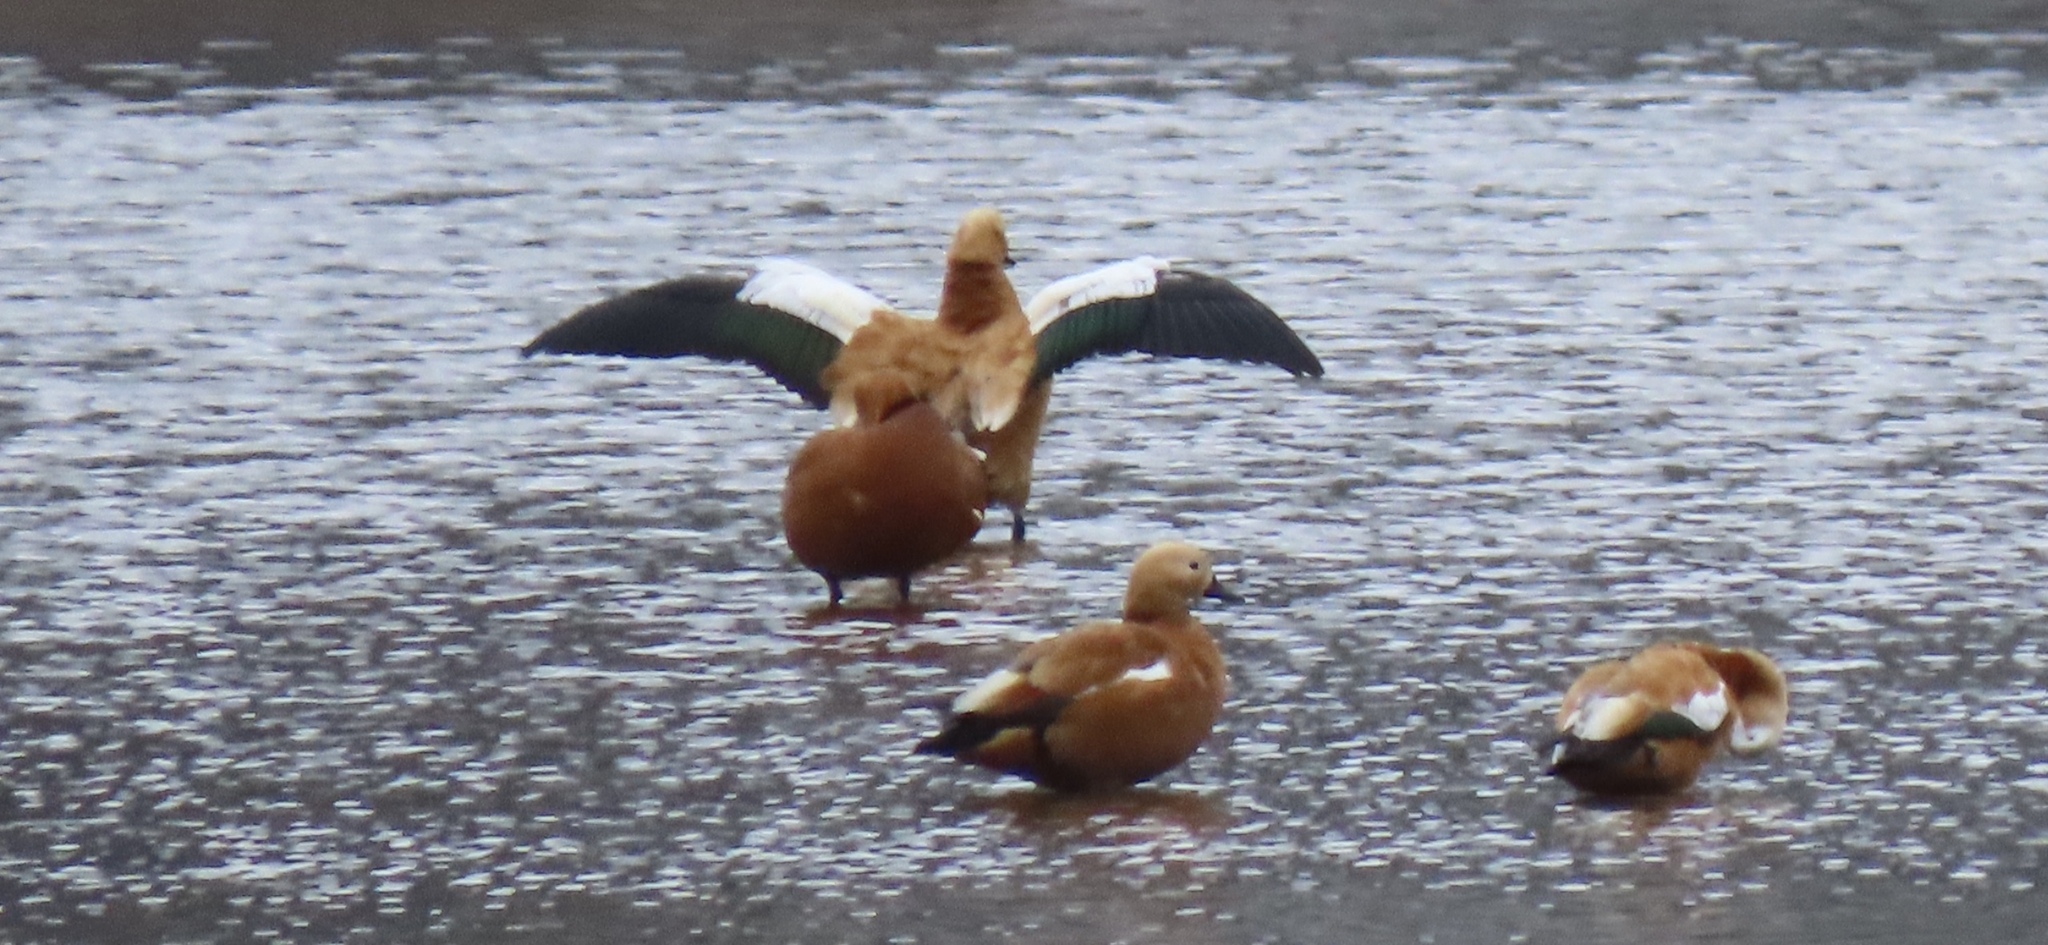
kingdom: Animalia
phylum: Chordata
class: Aves
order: Anseriformes
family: Anatidae
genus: Tadorna
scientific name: Tadorna ferruginea
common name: Ruddy shelduck
